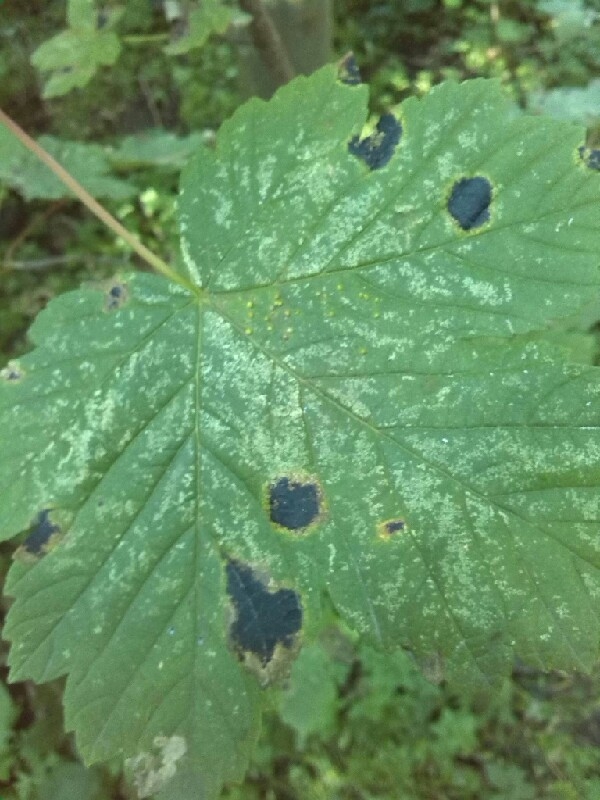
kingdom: Fungi
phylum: Ascomycota
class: Leotiomycetes
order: Rhytismatales
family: Rhytismataceae
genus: Rhytisma
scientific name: Rhytisma acerinum
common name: European tar spot
